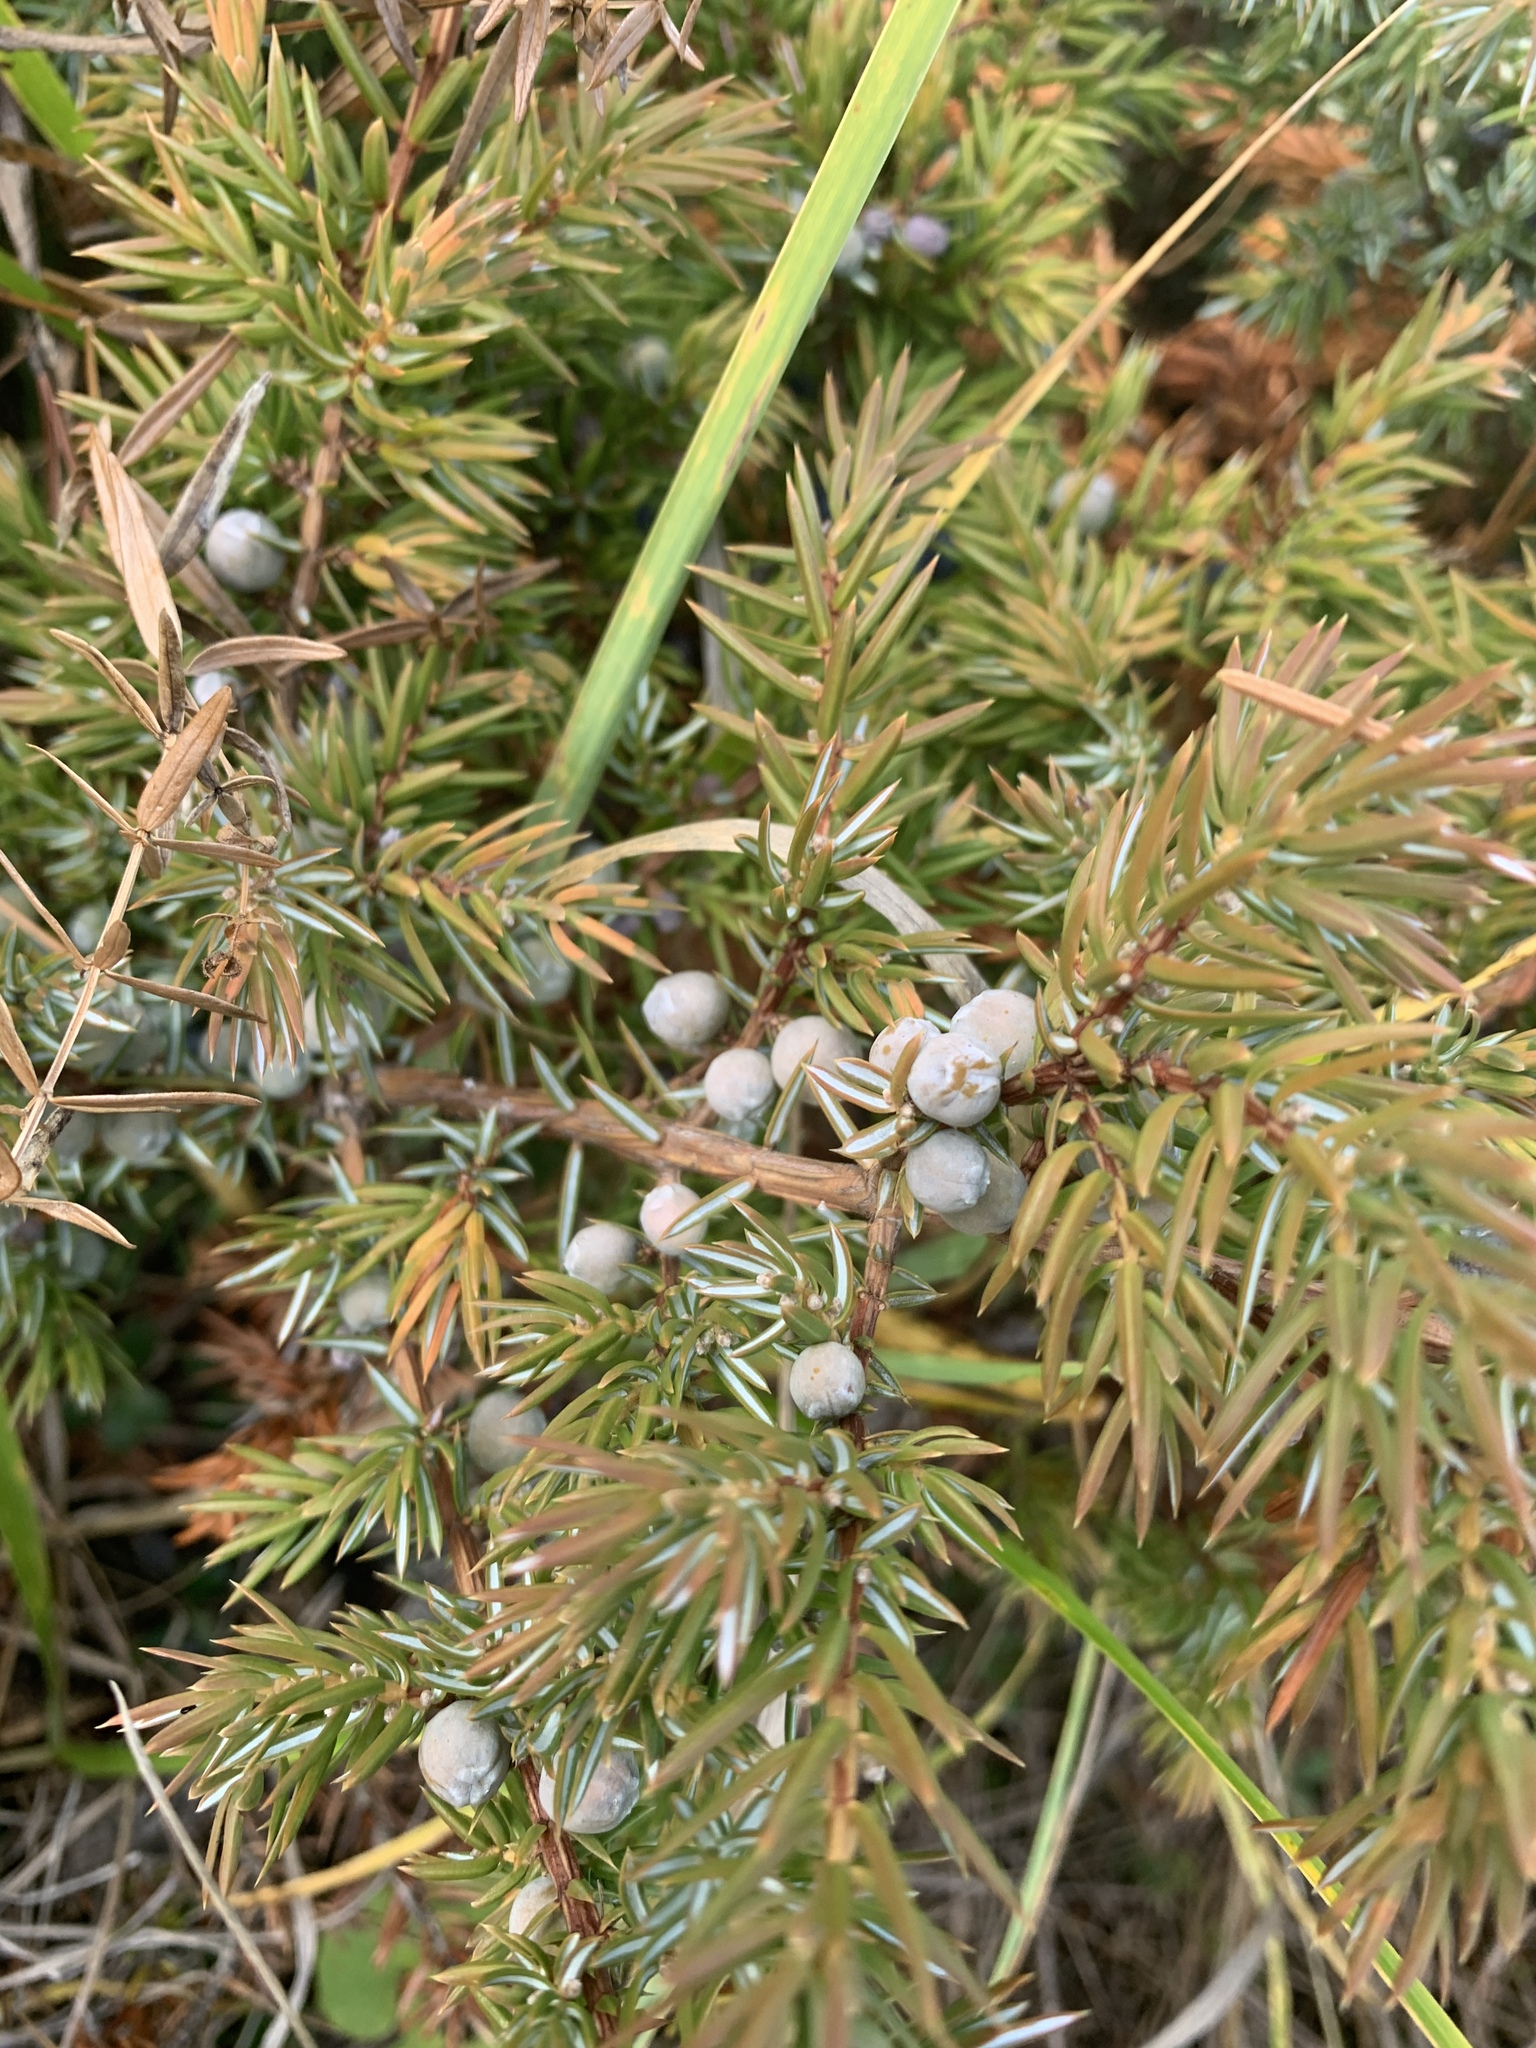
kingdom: Plantae
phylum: Tracheophyta
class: Pinopsida
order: Pinales
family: Cupressaceae
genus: Juniperus
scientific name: Juniperus communis
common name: Common juniper
